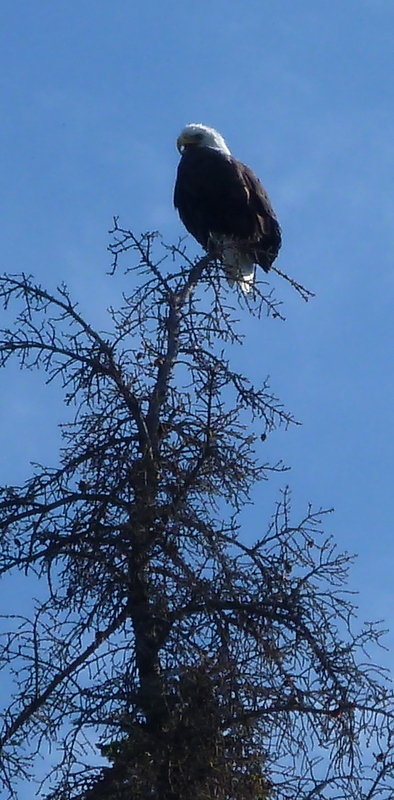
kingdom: Animalia
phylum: Chordata
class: Aves
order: Accipitriformes
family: Accipitridae
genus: Haliaeetus
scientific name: Haliaeetus leucocephalus
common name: Bald eagle
